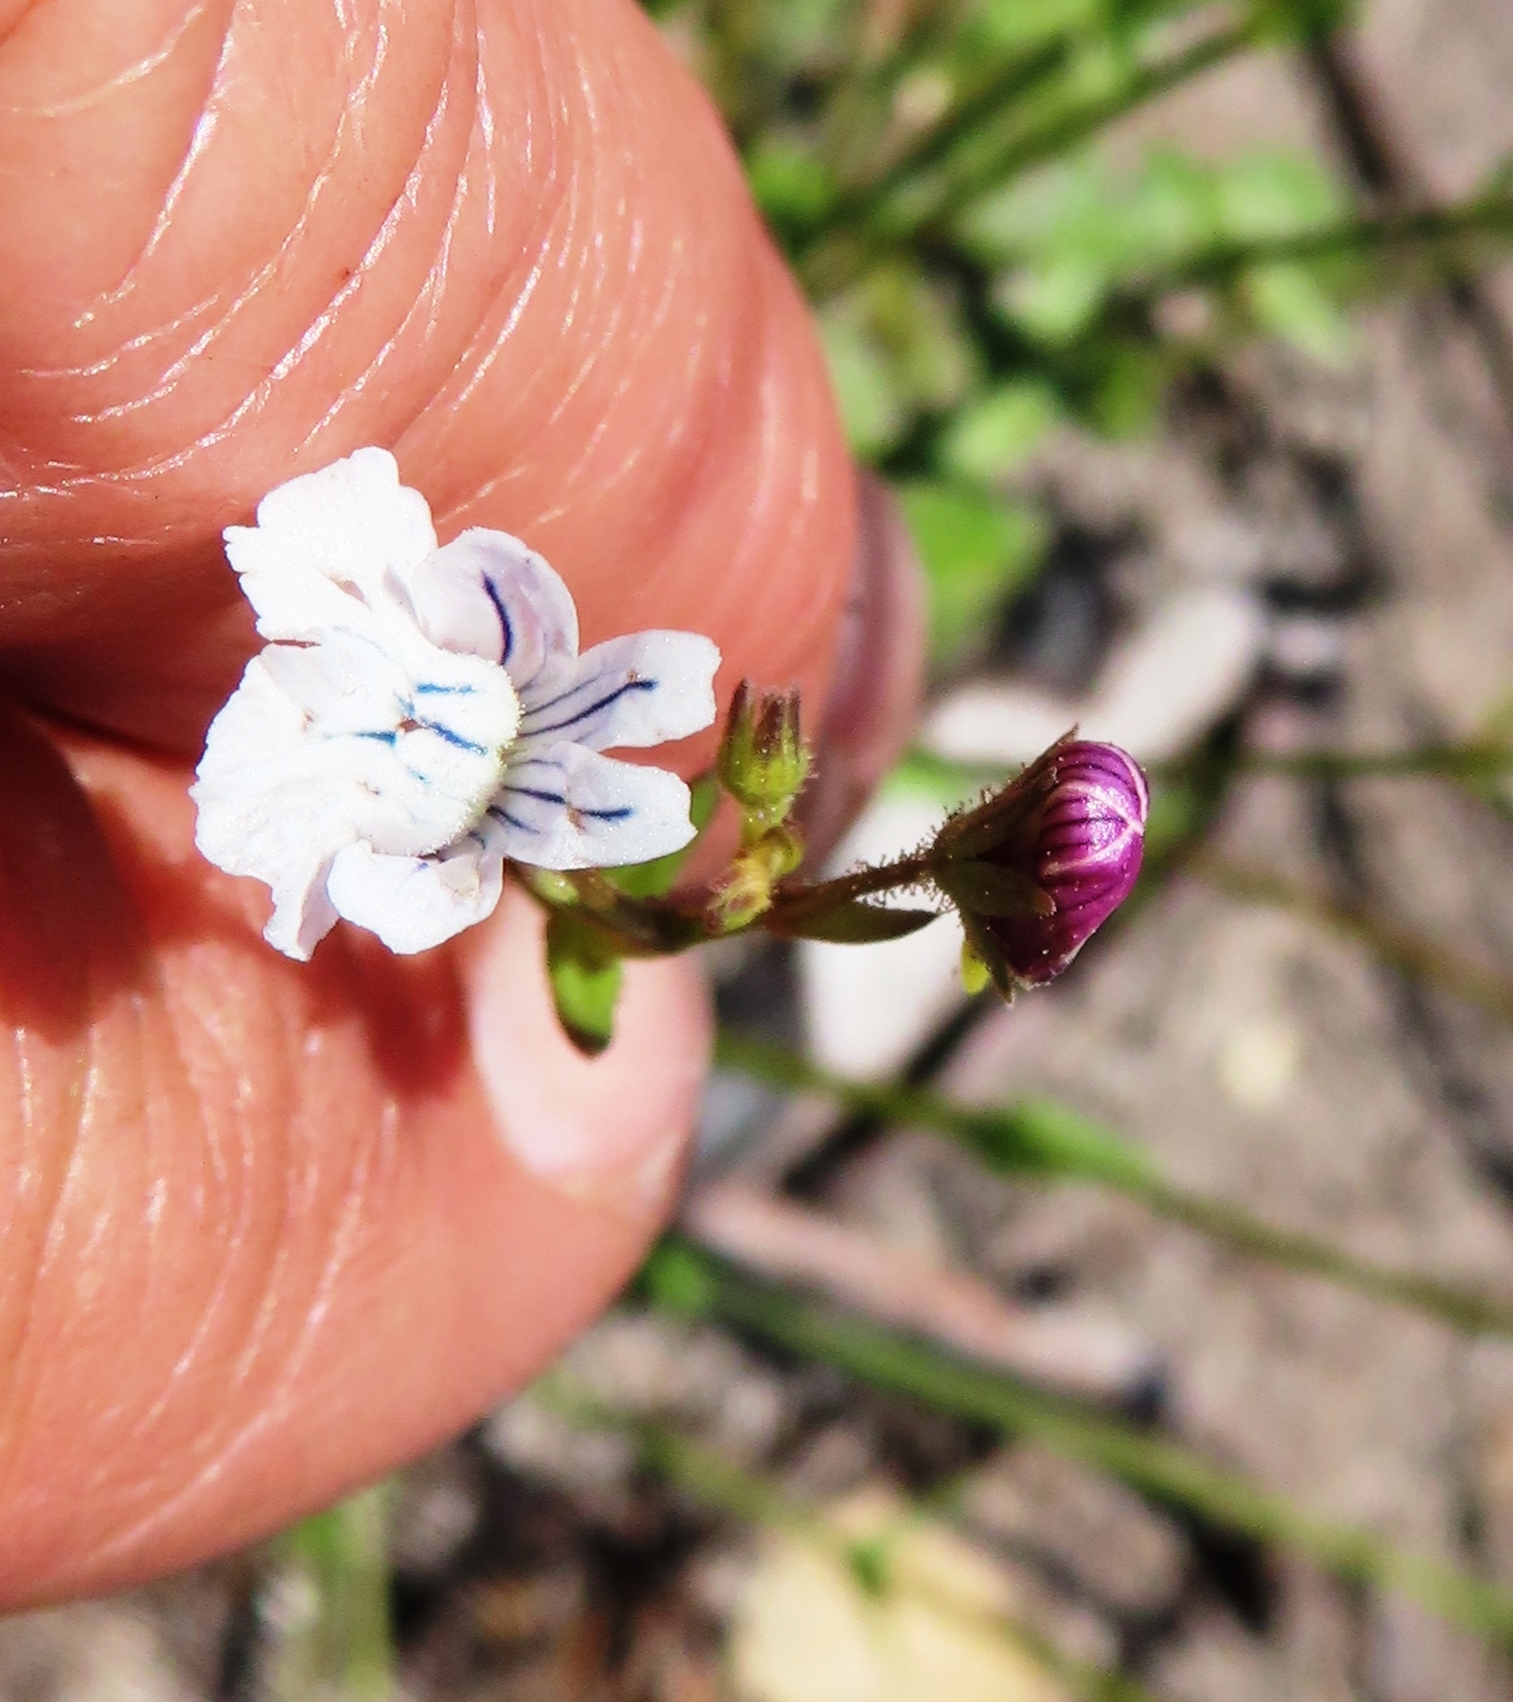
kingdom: Plantae
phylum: Tracheophyta
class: Magnoliopsida
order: Lamiales
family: Scrophulariaceae
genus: Nemesia
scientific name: Nemesia diffusa
